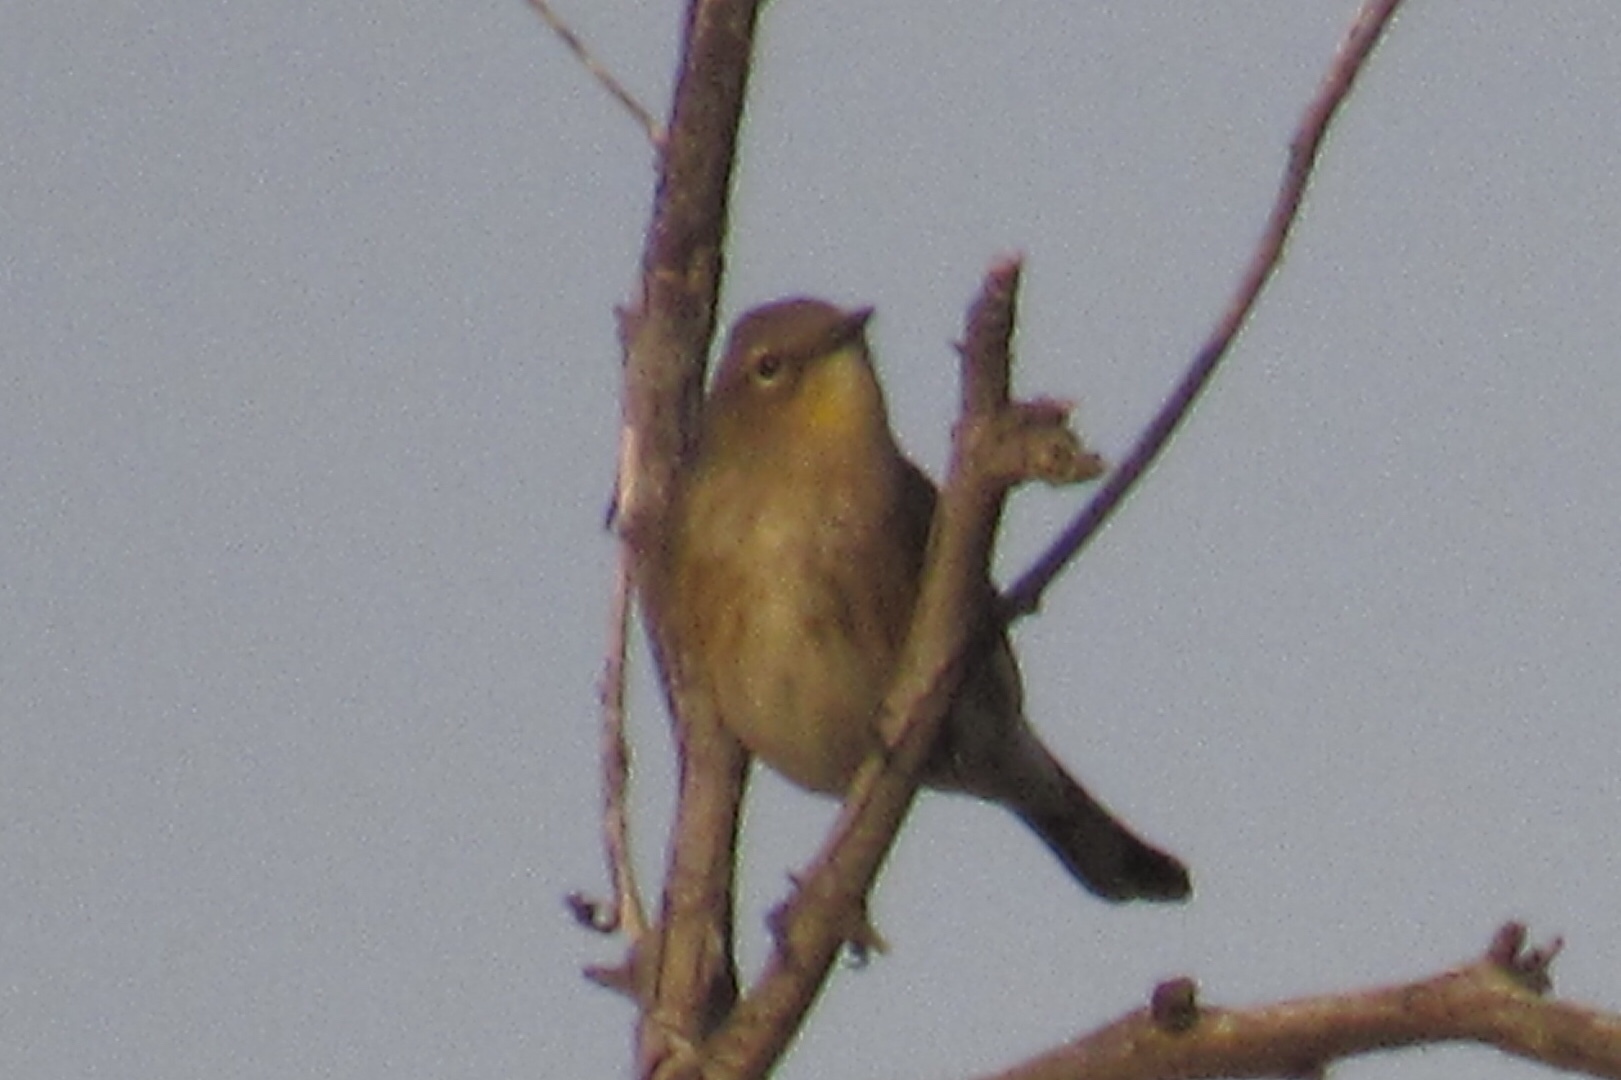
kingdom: Animalia
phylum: Chordata
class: Aves
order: Passeriformes
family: Parulidae
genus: Setophaga
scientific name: Setophaga coronata
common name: Myrtle warbler
